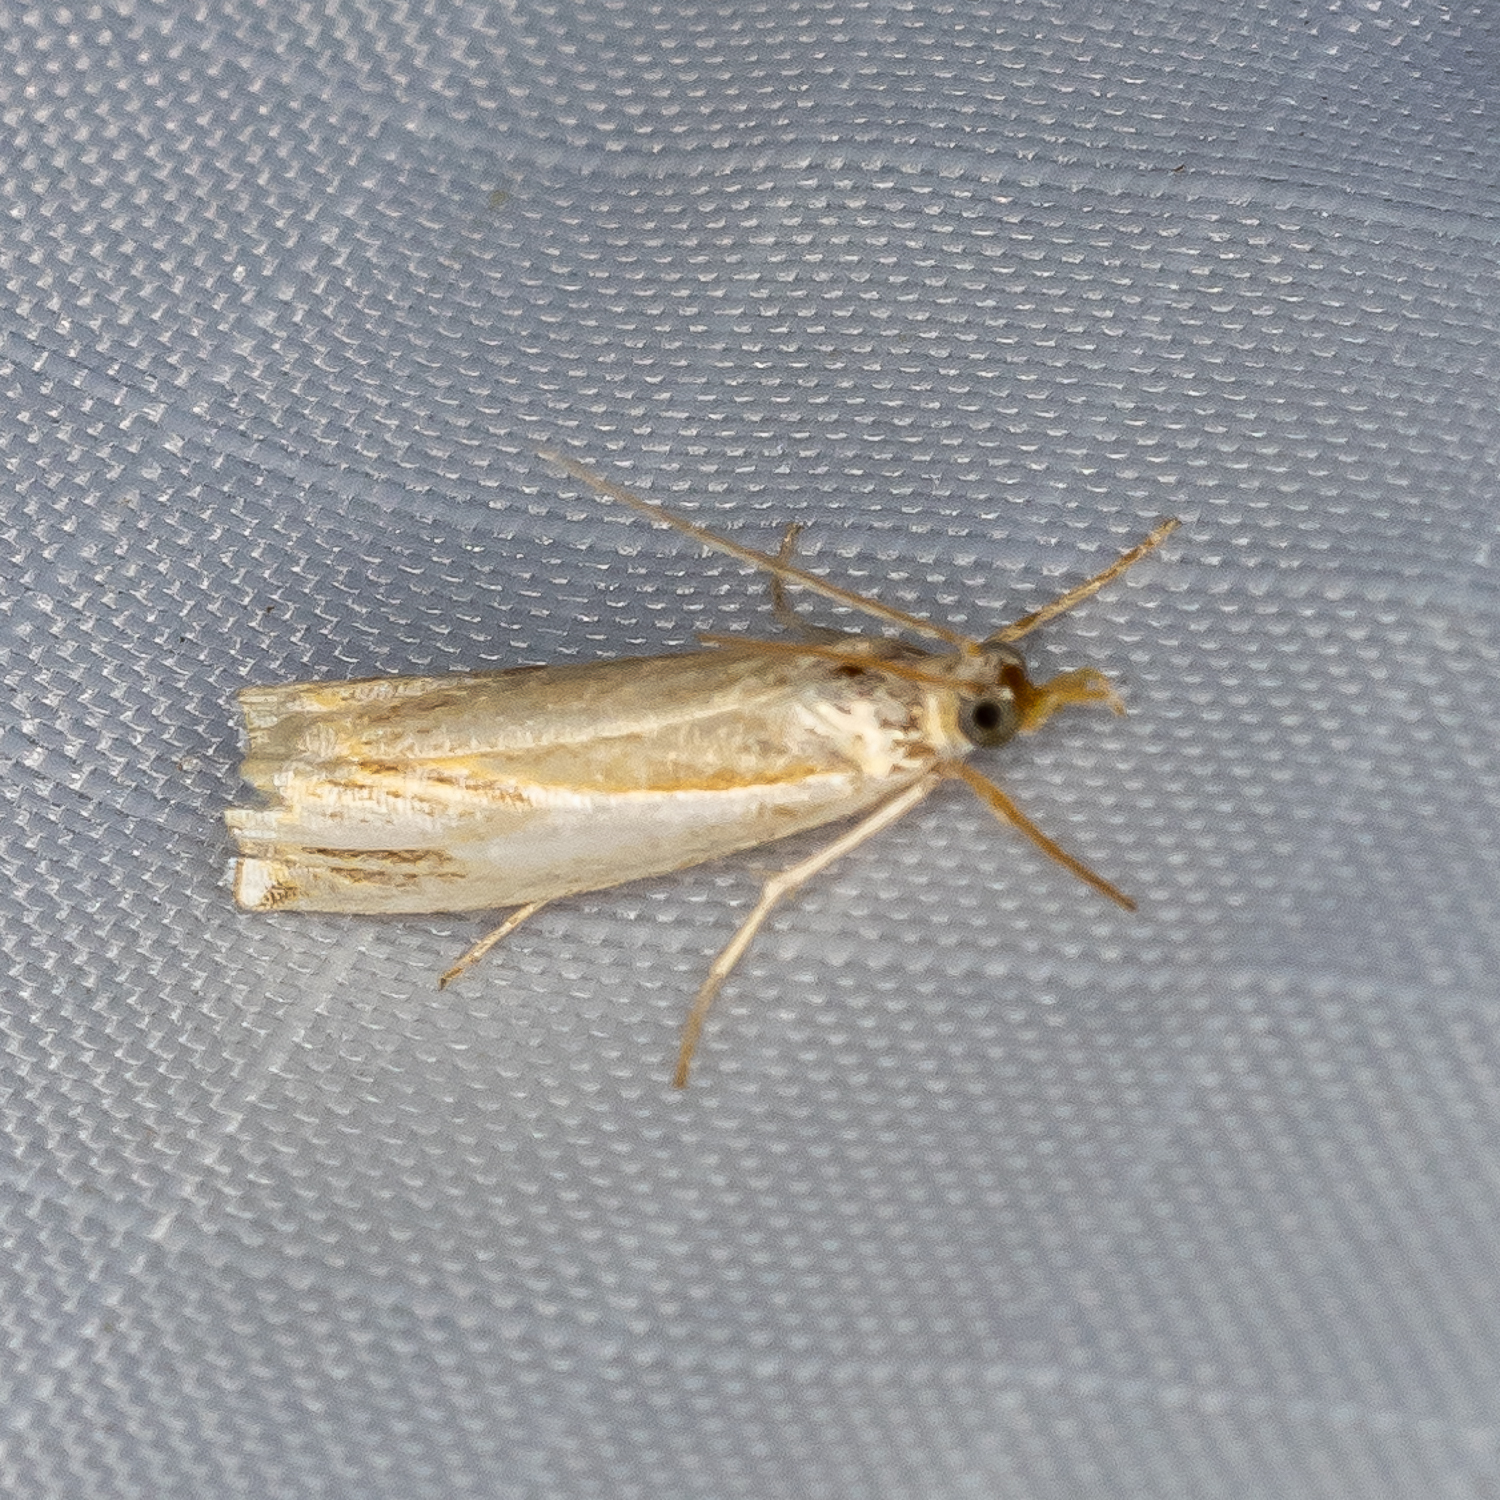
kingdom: Animalia
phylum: Arthropoda
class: Insecta
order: Lepidoptera
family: Crambidae
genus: Crambus
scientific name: Crambus agitatellus
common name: Double-banded grass-veneer
